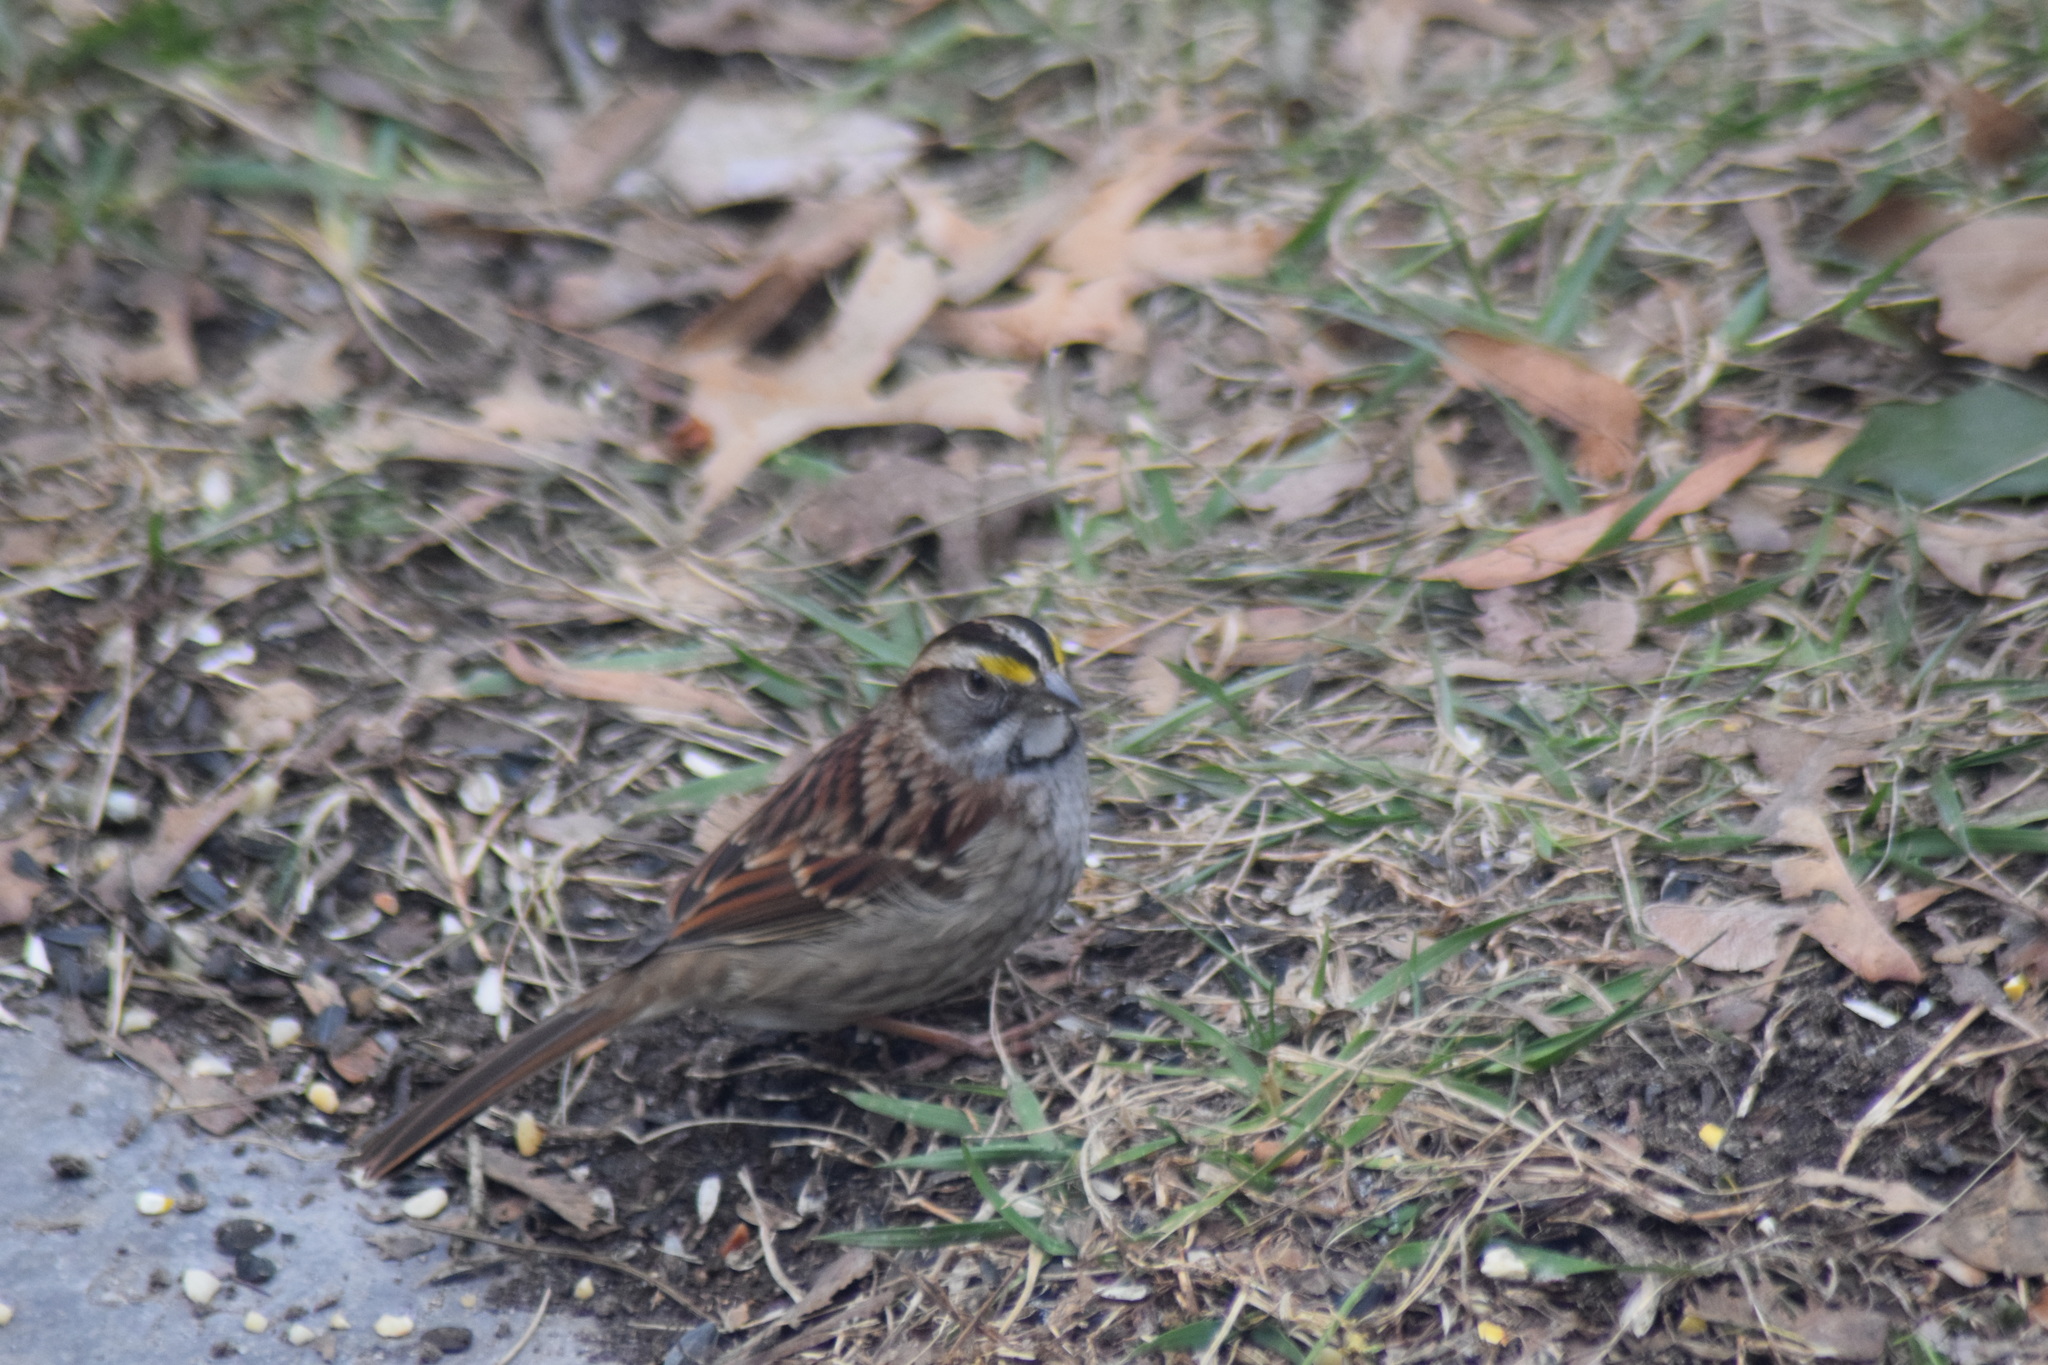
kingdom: Animalia
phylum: Chordata
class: Aves
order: Passeriformes
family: Passerellidae
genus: Zonotrichia
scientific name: Zonotrichia albicollis
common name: White-throated sparrow
